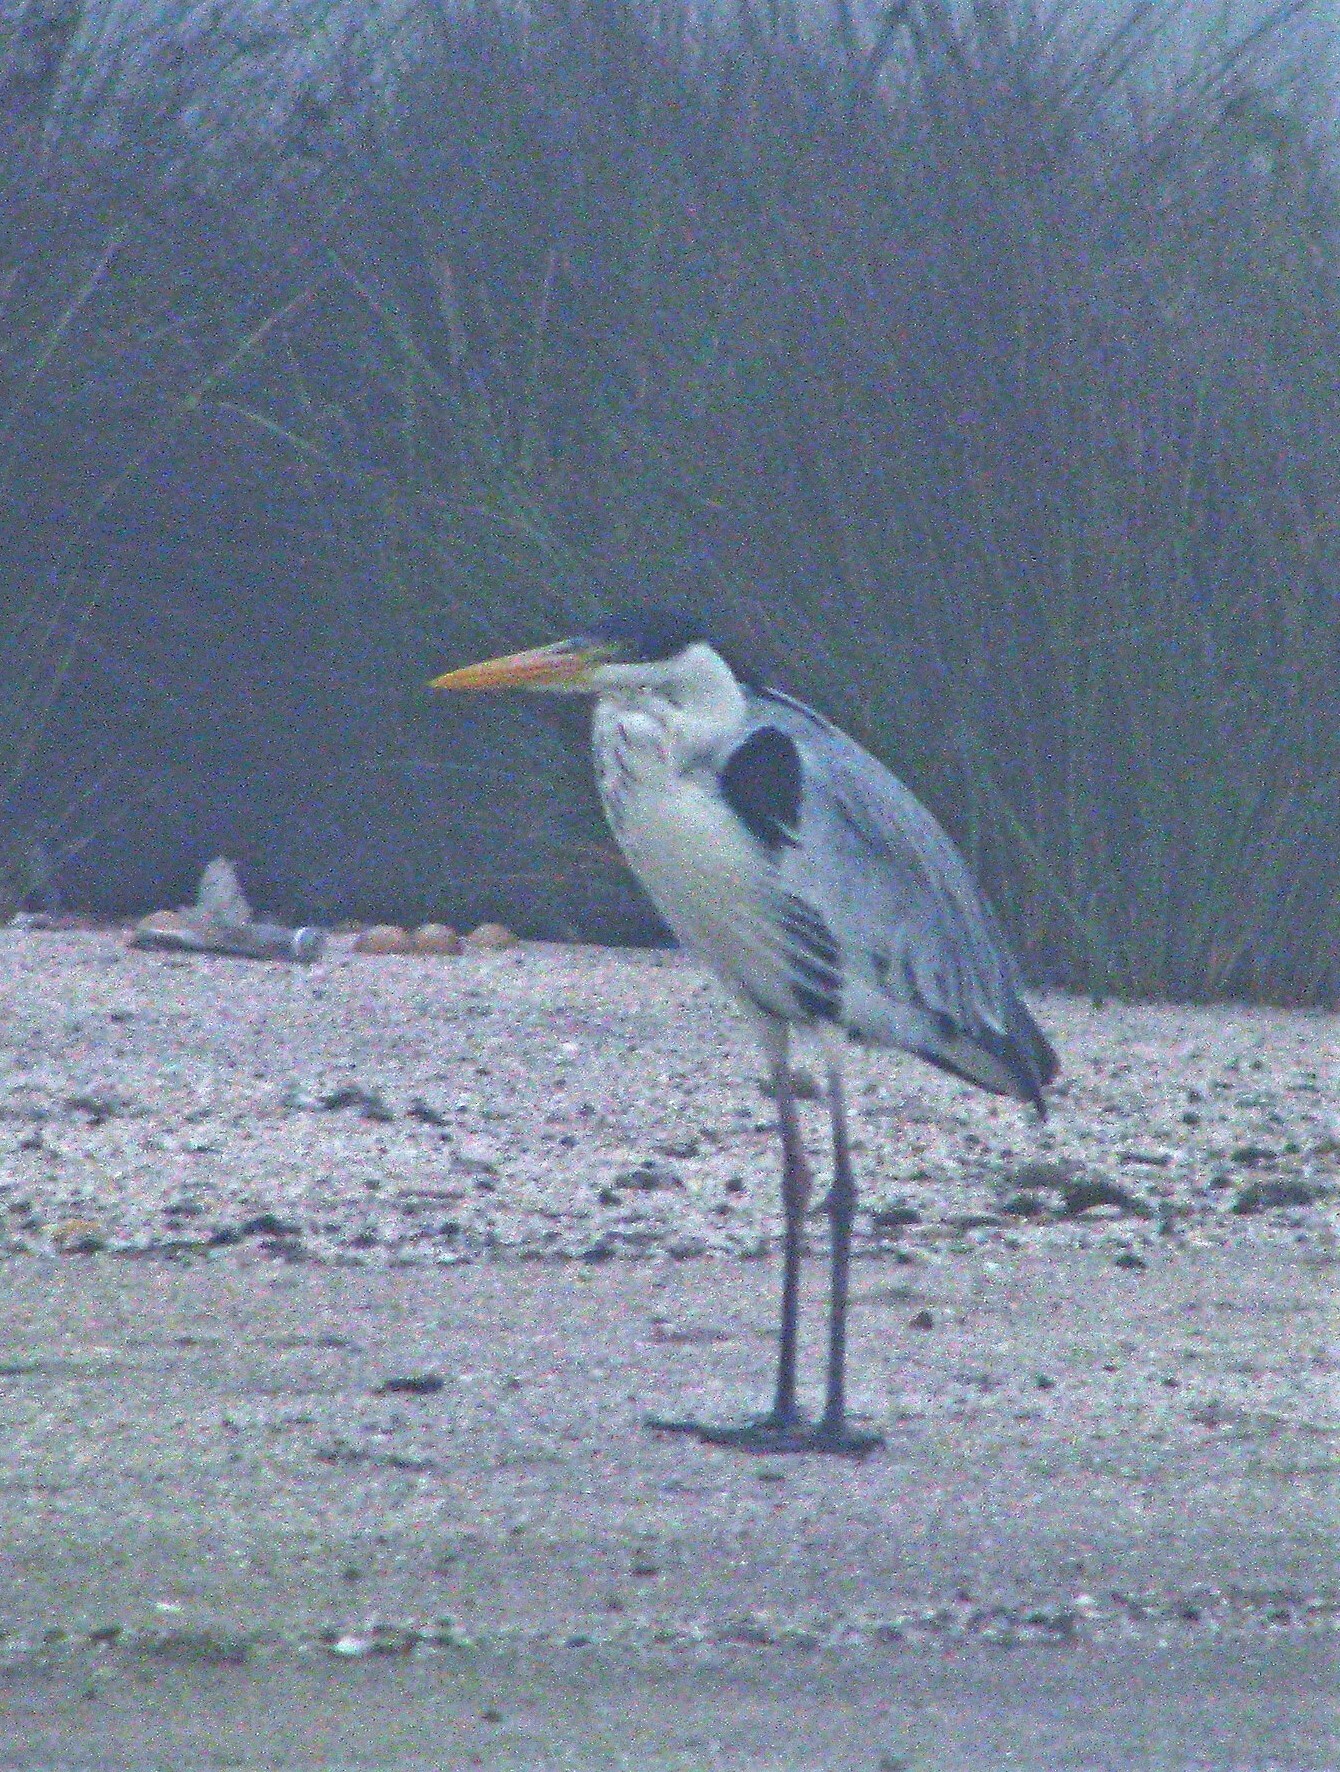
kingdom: Animalia
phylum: Chordata
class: Aves
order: Pelecaniformes
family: Ardeidae
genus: Ardea
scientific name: Ardea cocoi
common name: Cocoi heron
